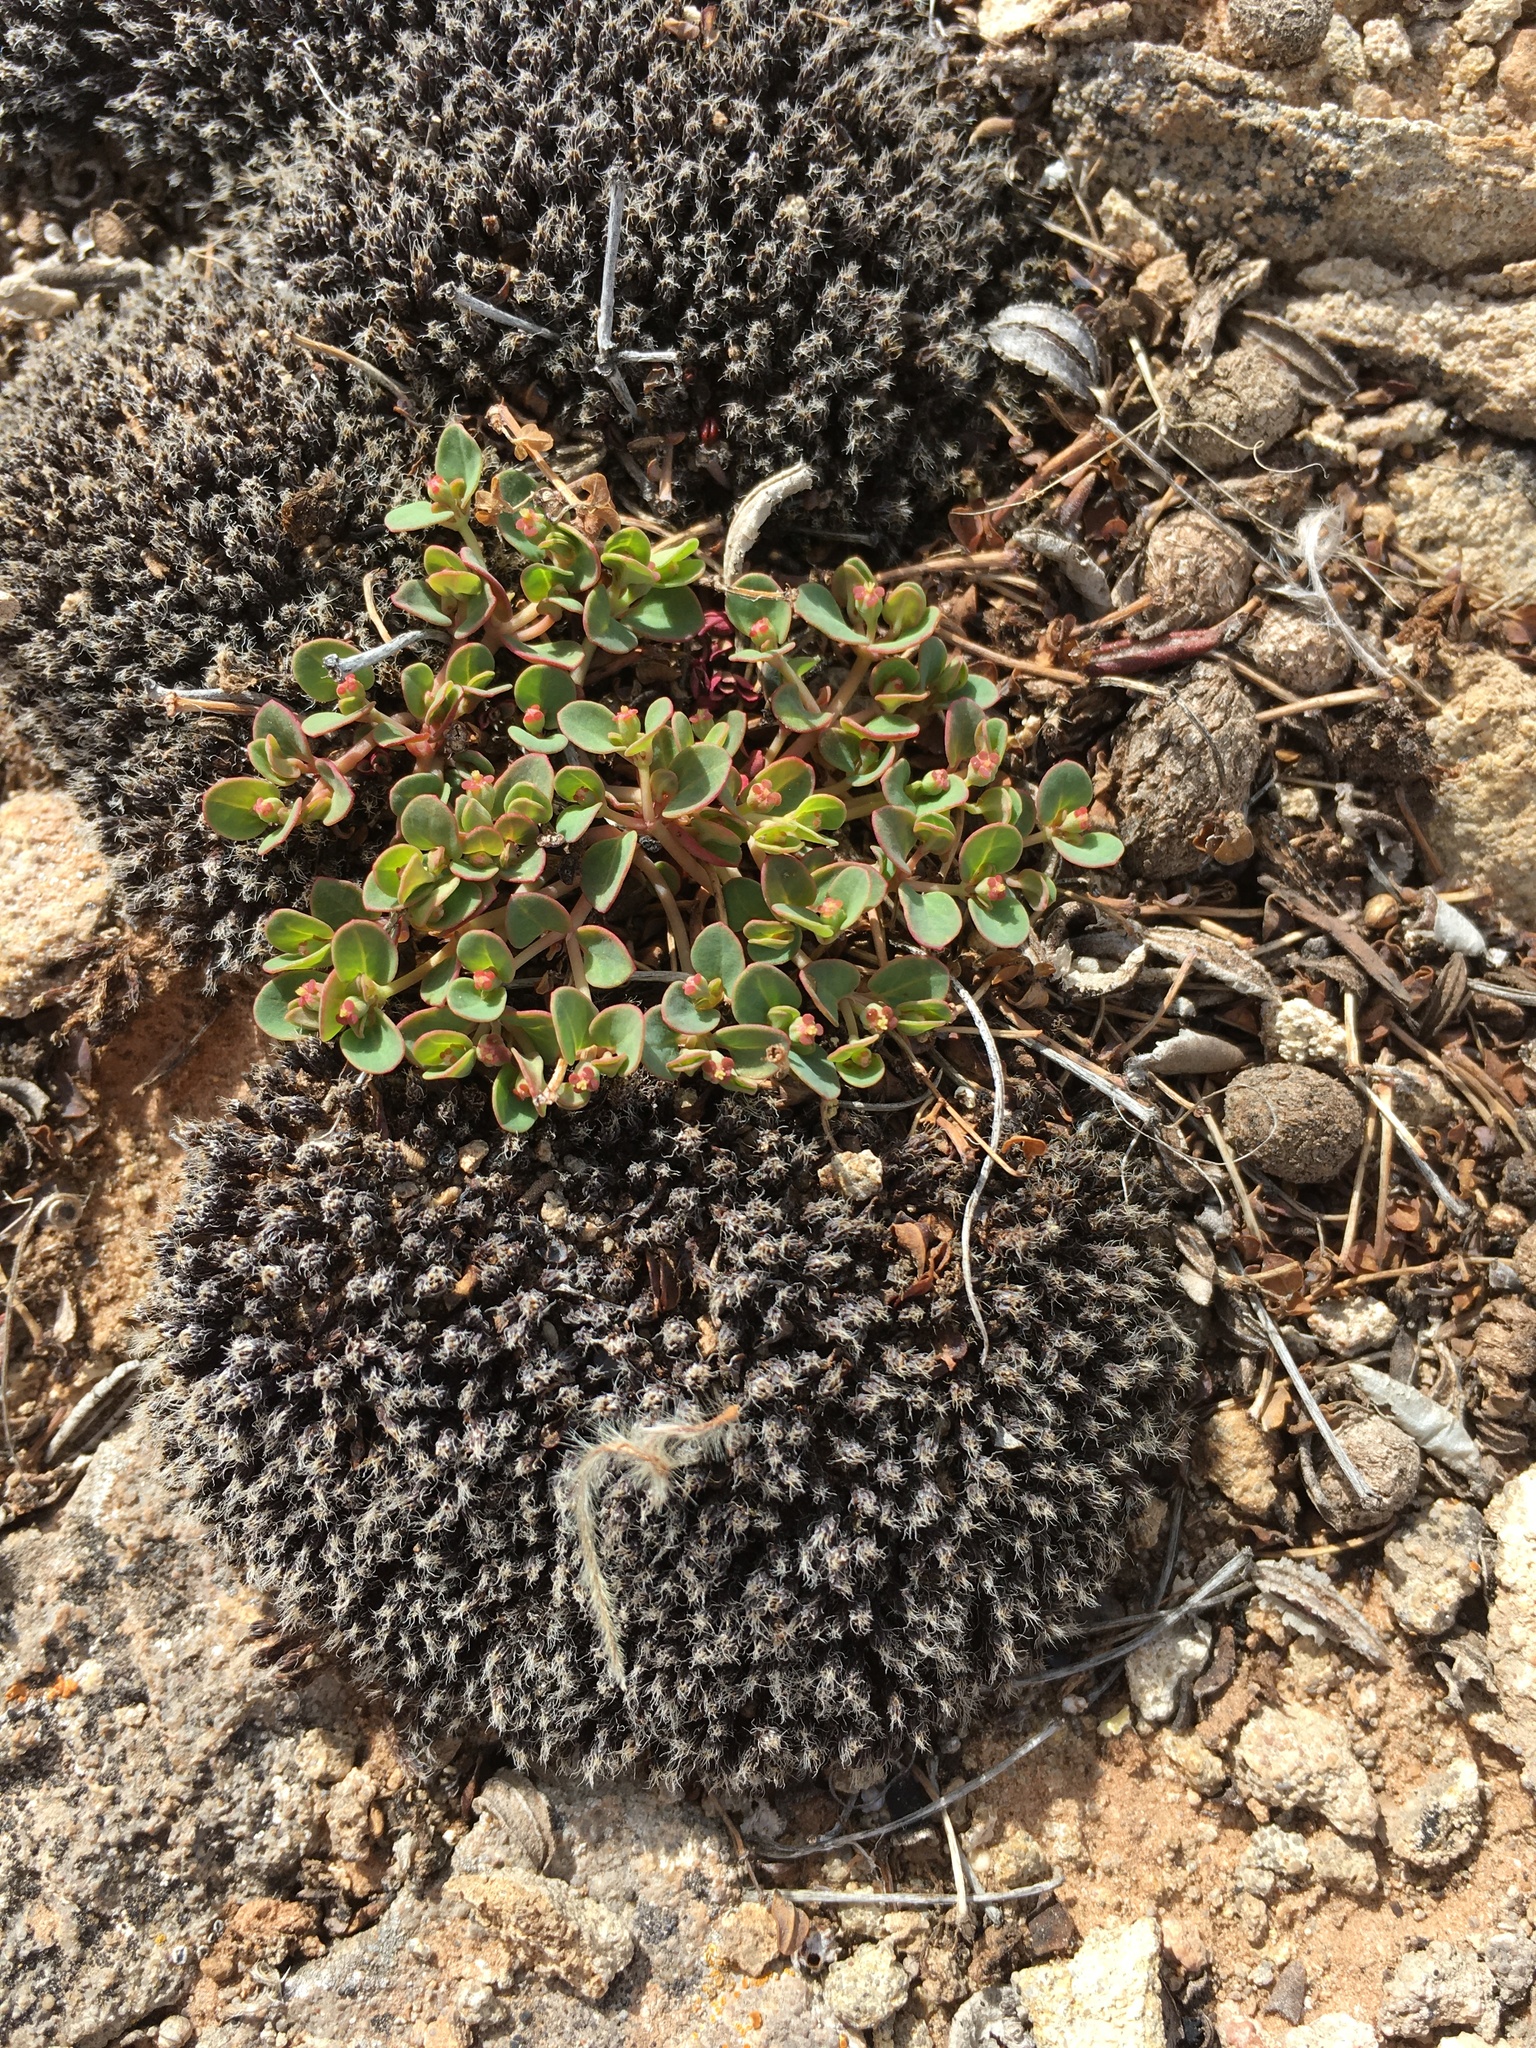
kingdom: Plantae
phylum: Tracheophyta
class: Magnoliopsida
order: Malpighiales
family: Euphorbiaceae
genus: Euphorbia
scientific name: Euphorbia fendleri
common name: Fendler's euphorbia
